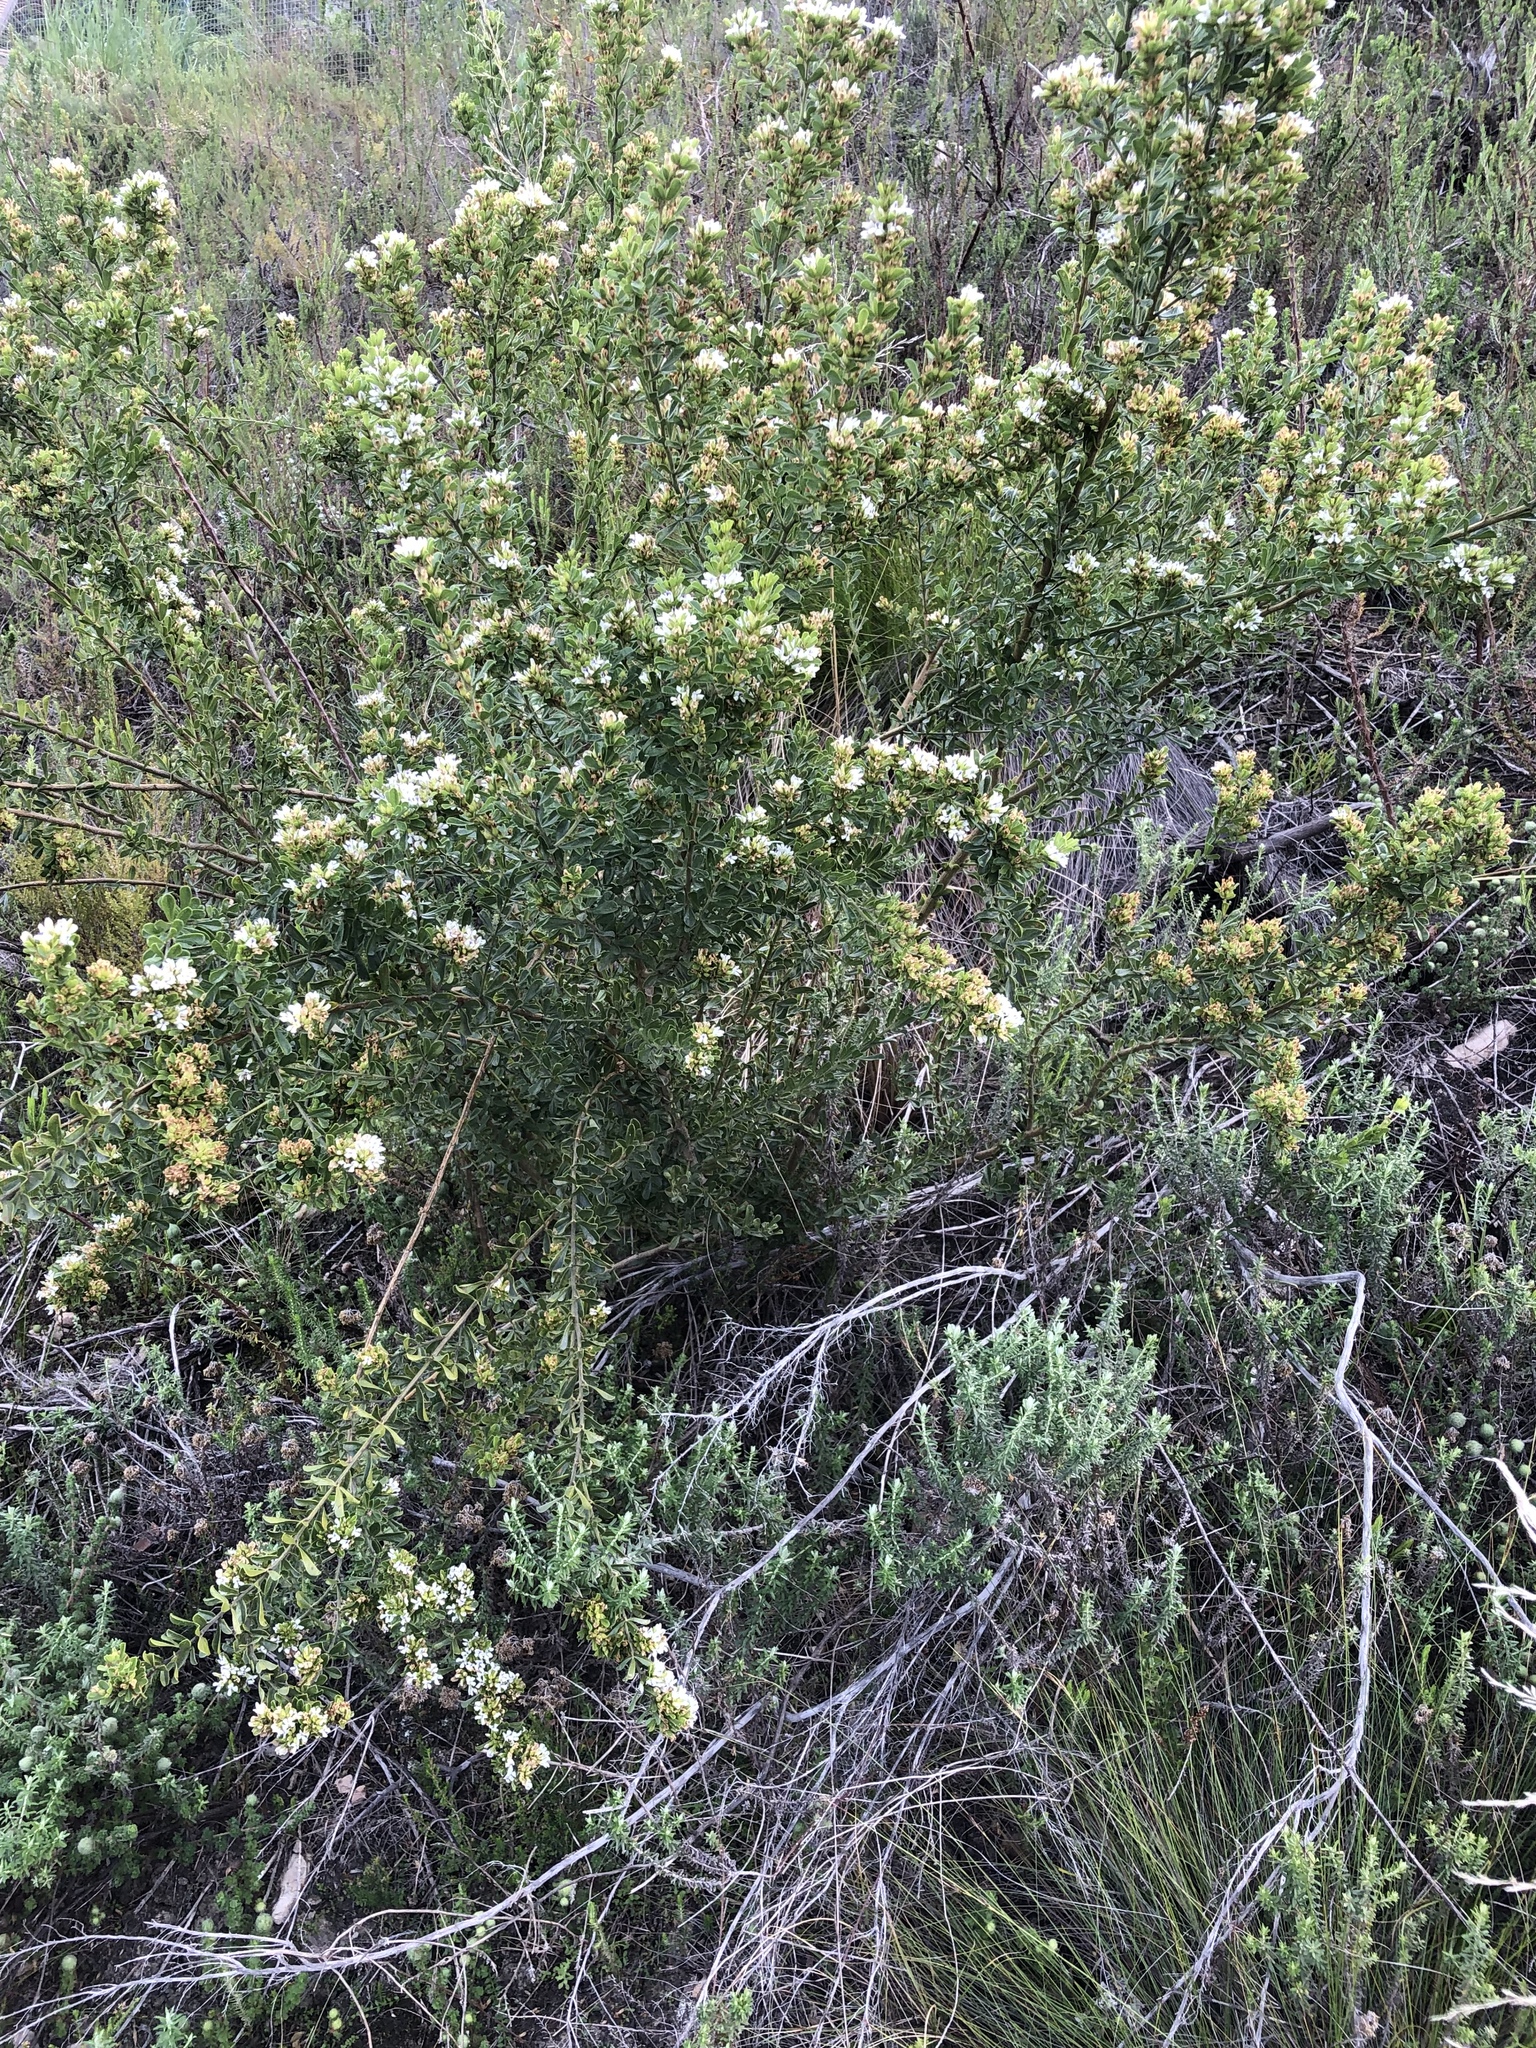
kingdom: Plantae
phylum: Tracheophyta
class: Magnoliopsida
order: Fabales
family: Fabaceae
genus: Psoralea
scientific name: Psoralea prodiens
